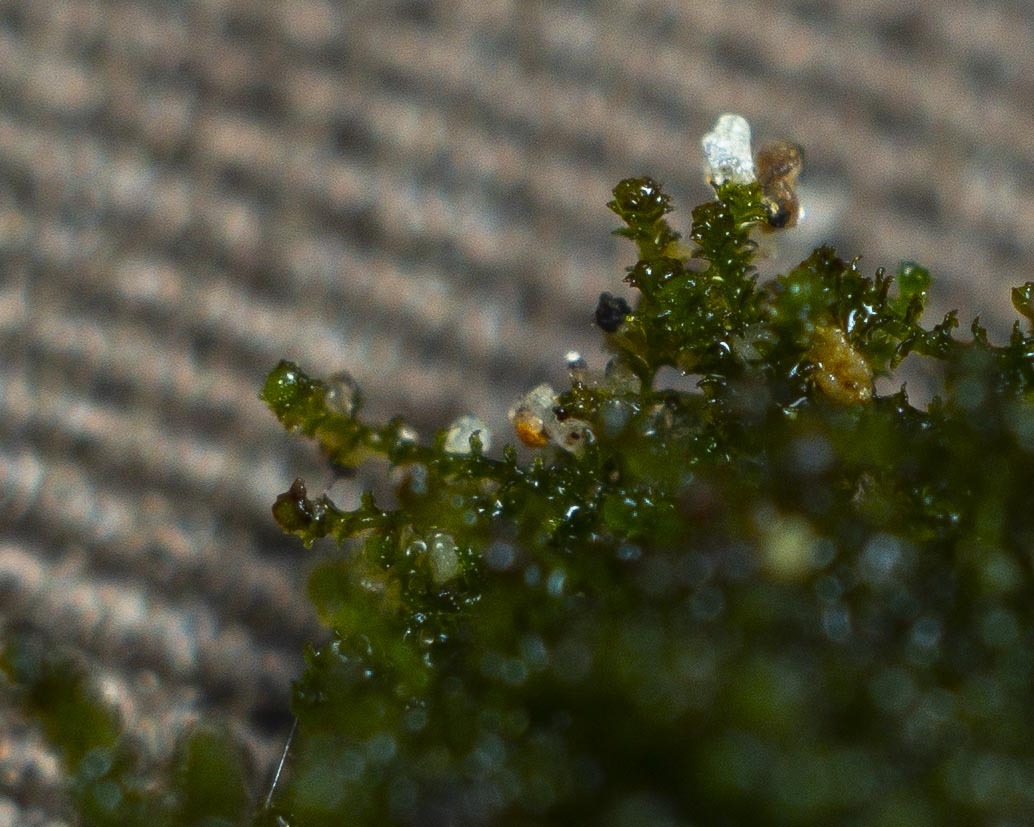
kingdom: Plantae
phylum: Marchantiophyta
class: Jungermanniopsida
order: Jungermanniales
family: Cephaloziellaceae
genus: Cephaloziella
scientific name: Cephaloziella divaricata
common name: Spreading threadwort
